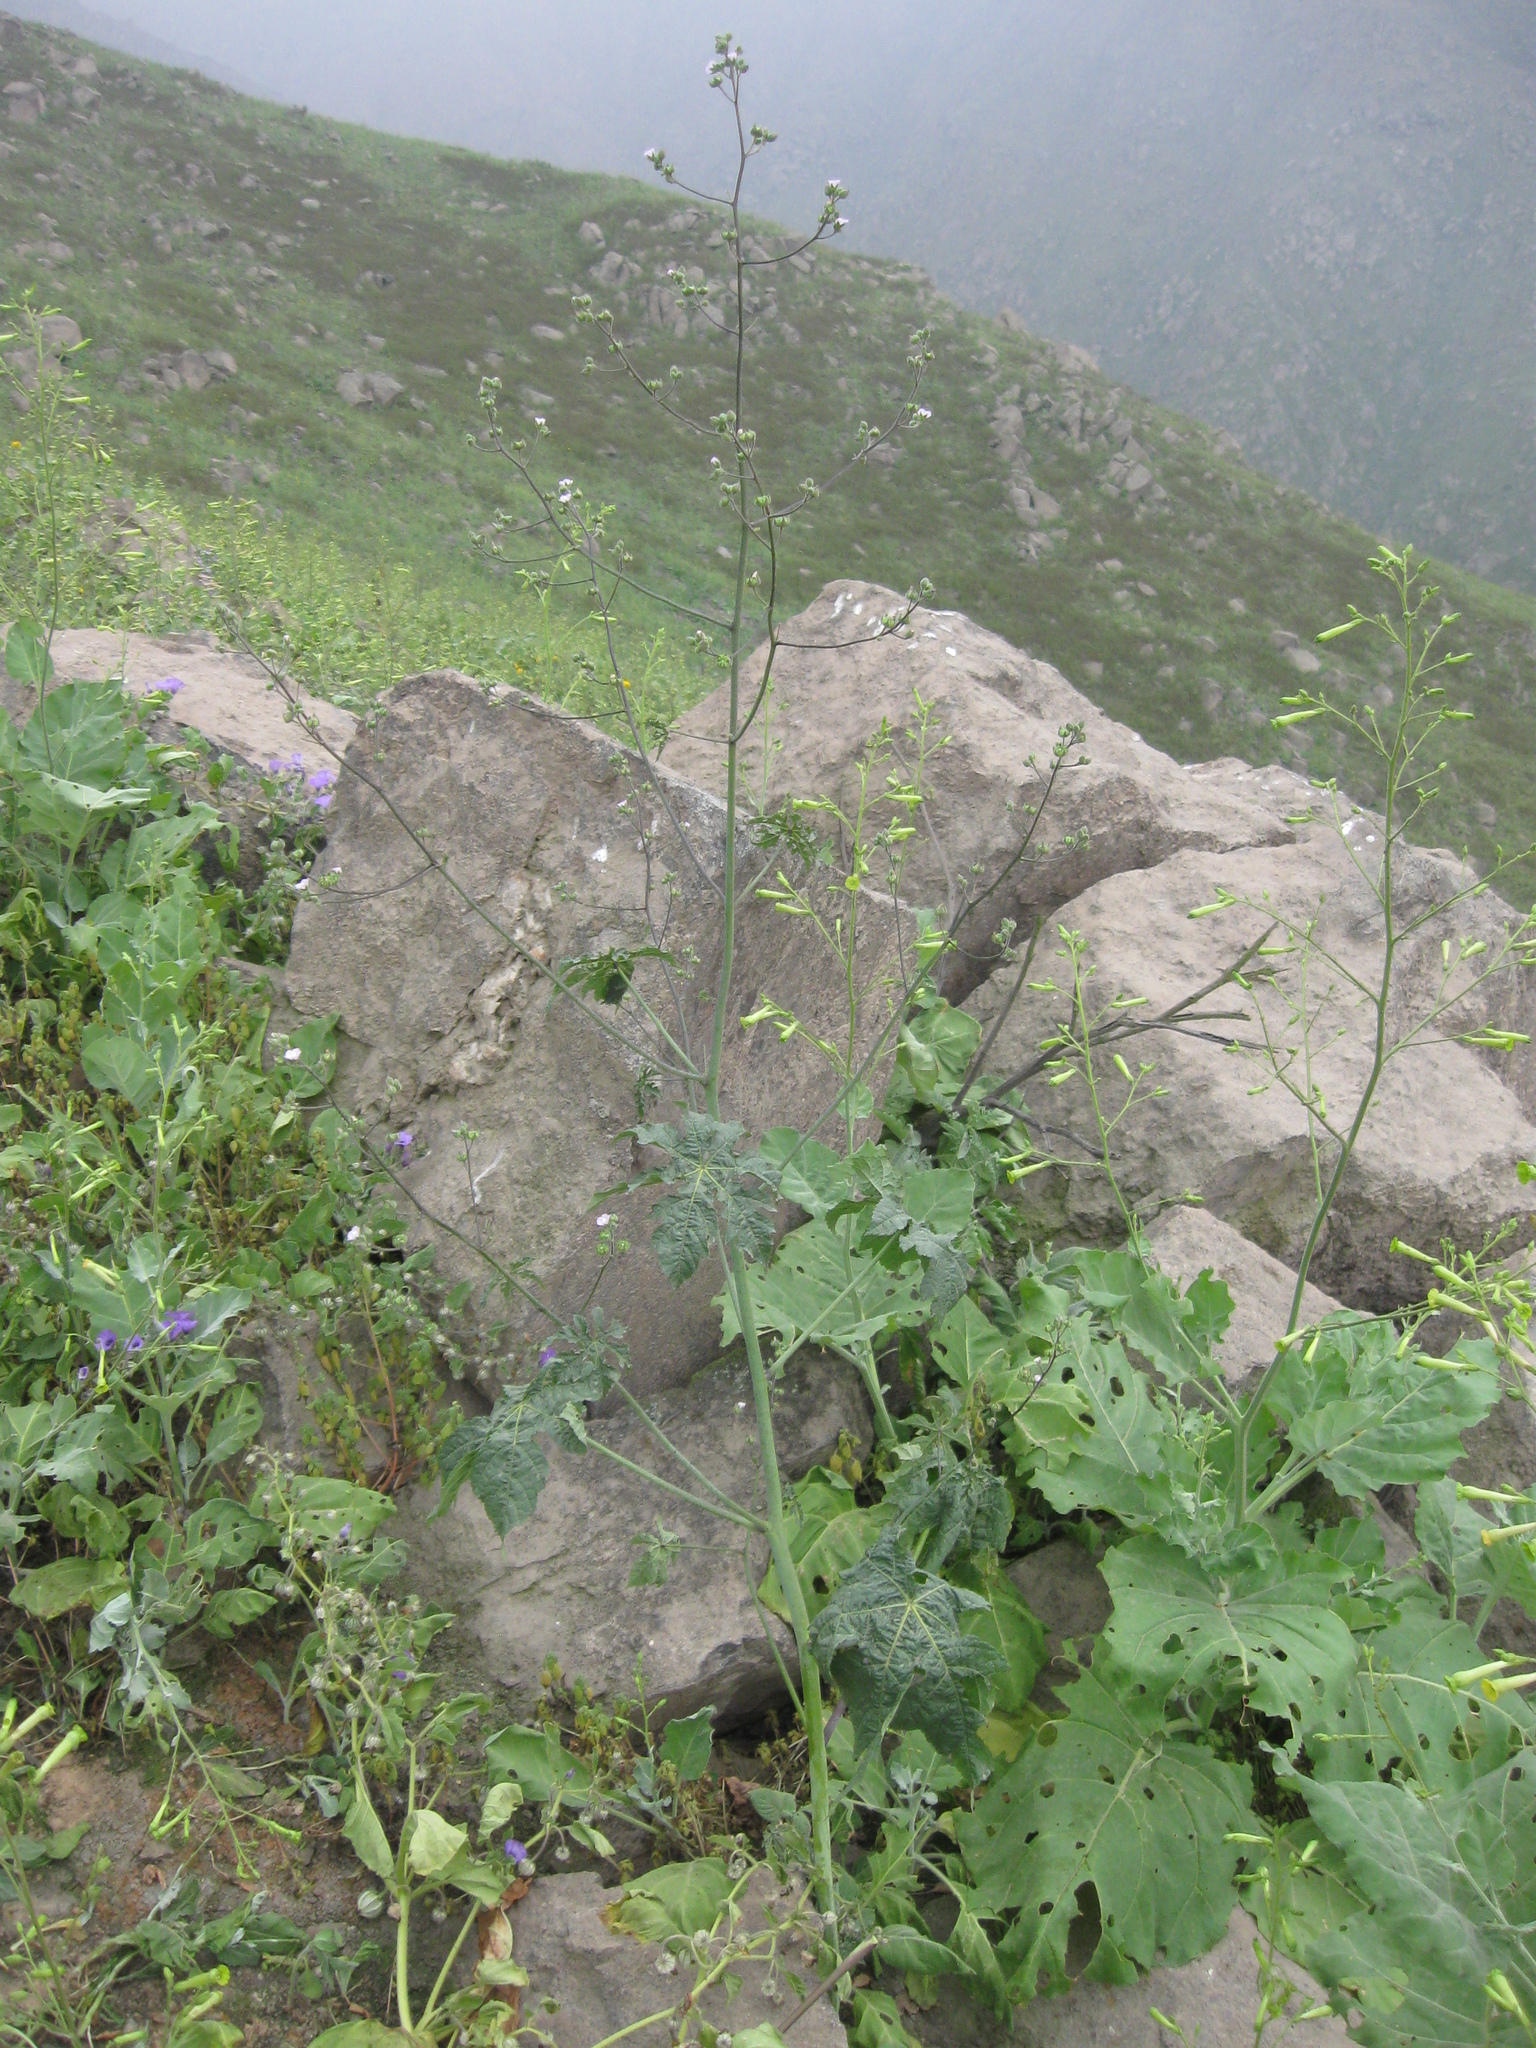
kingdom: Plantae
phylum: Tracheophyta
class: Magnoliopsida
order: Malvales
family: Malvaceae
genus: Sida
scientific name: Sida jatrophoides
